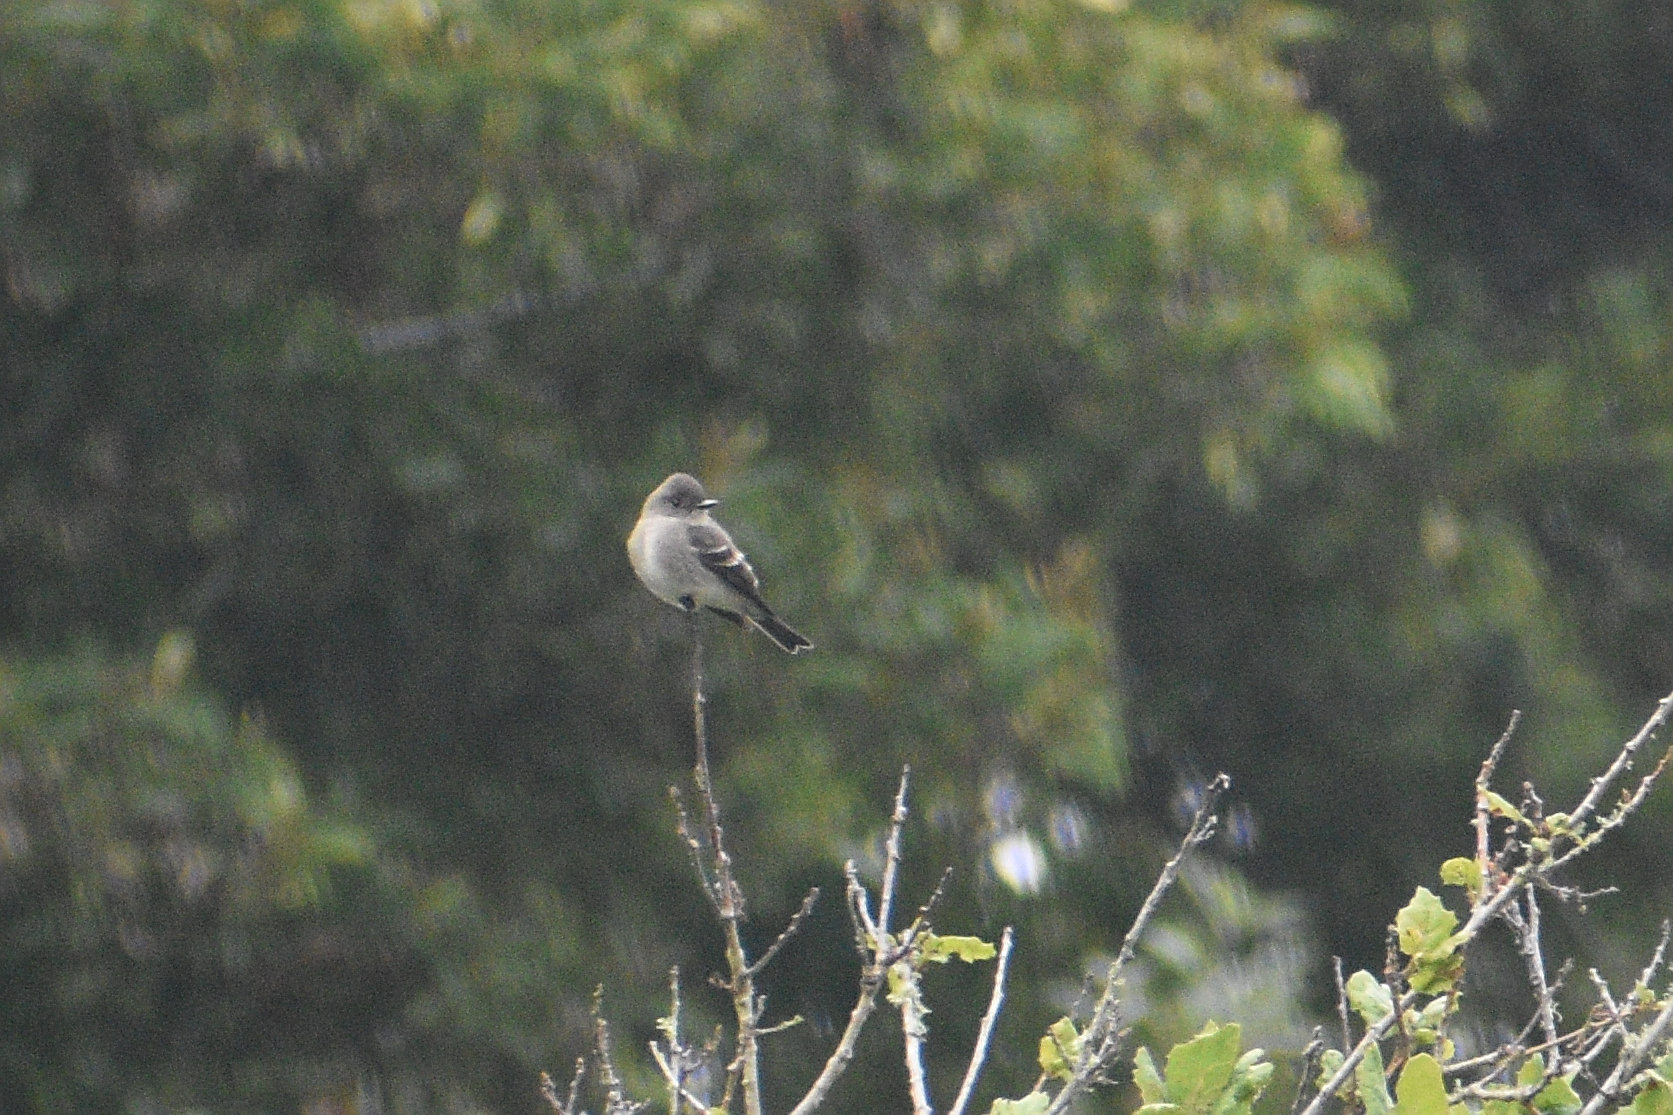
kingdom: Animalia
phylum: Chordata
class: Aves
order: Passeriformes
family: Tyrannidae
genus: Contopus
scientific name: Contopus sordidulus
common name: Western wood-pewee
